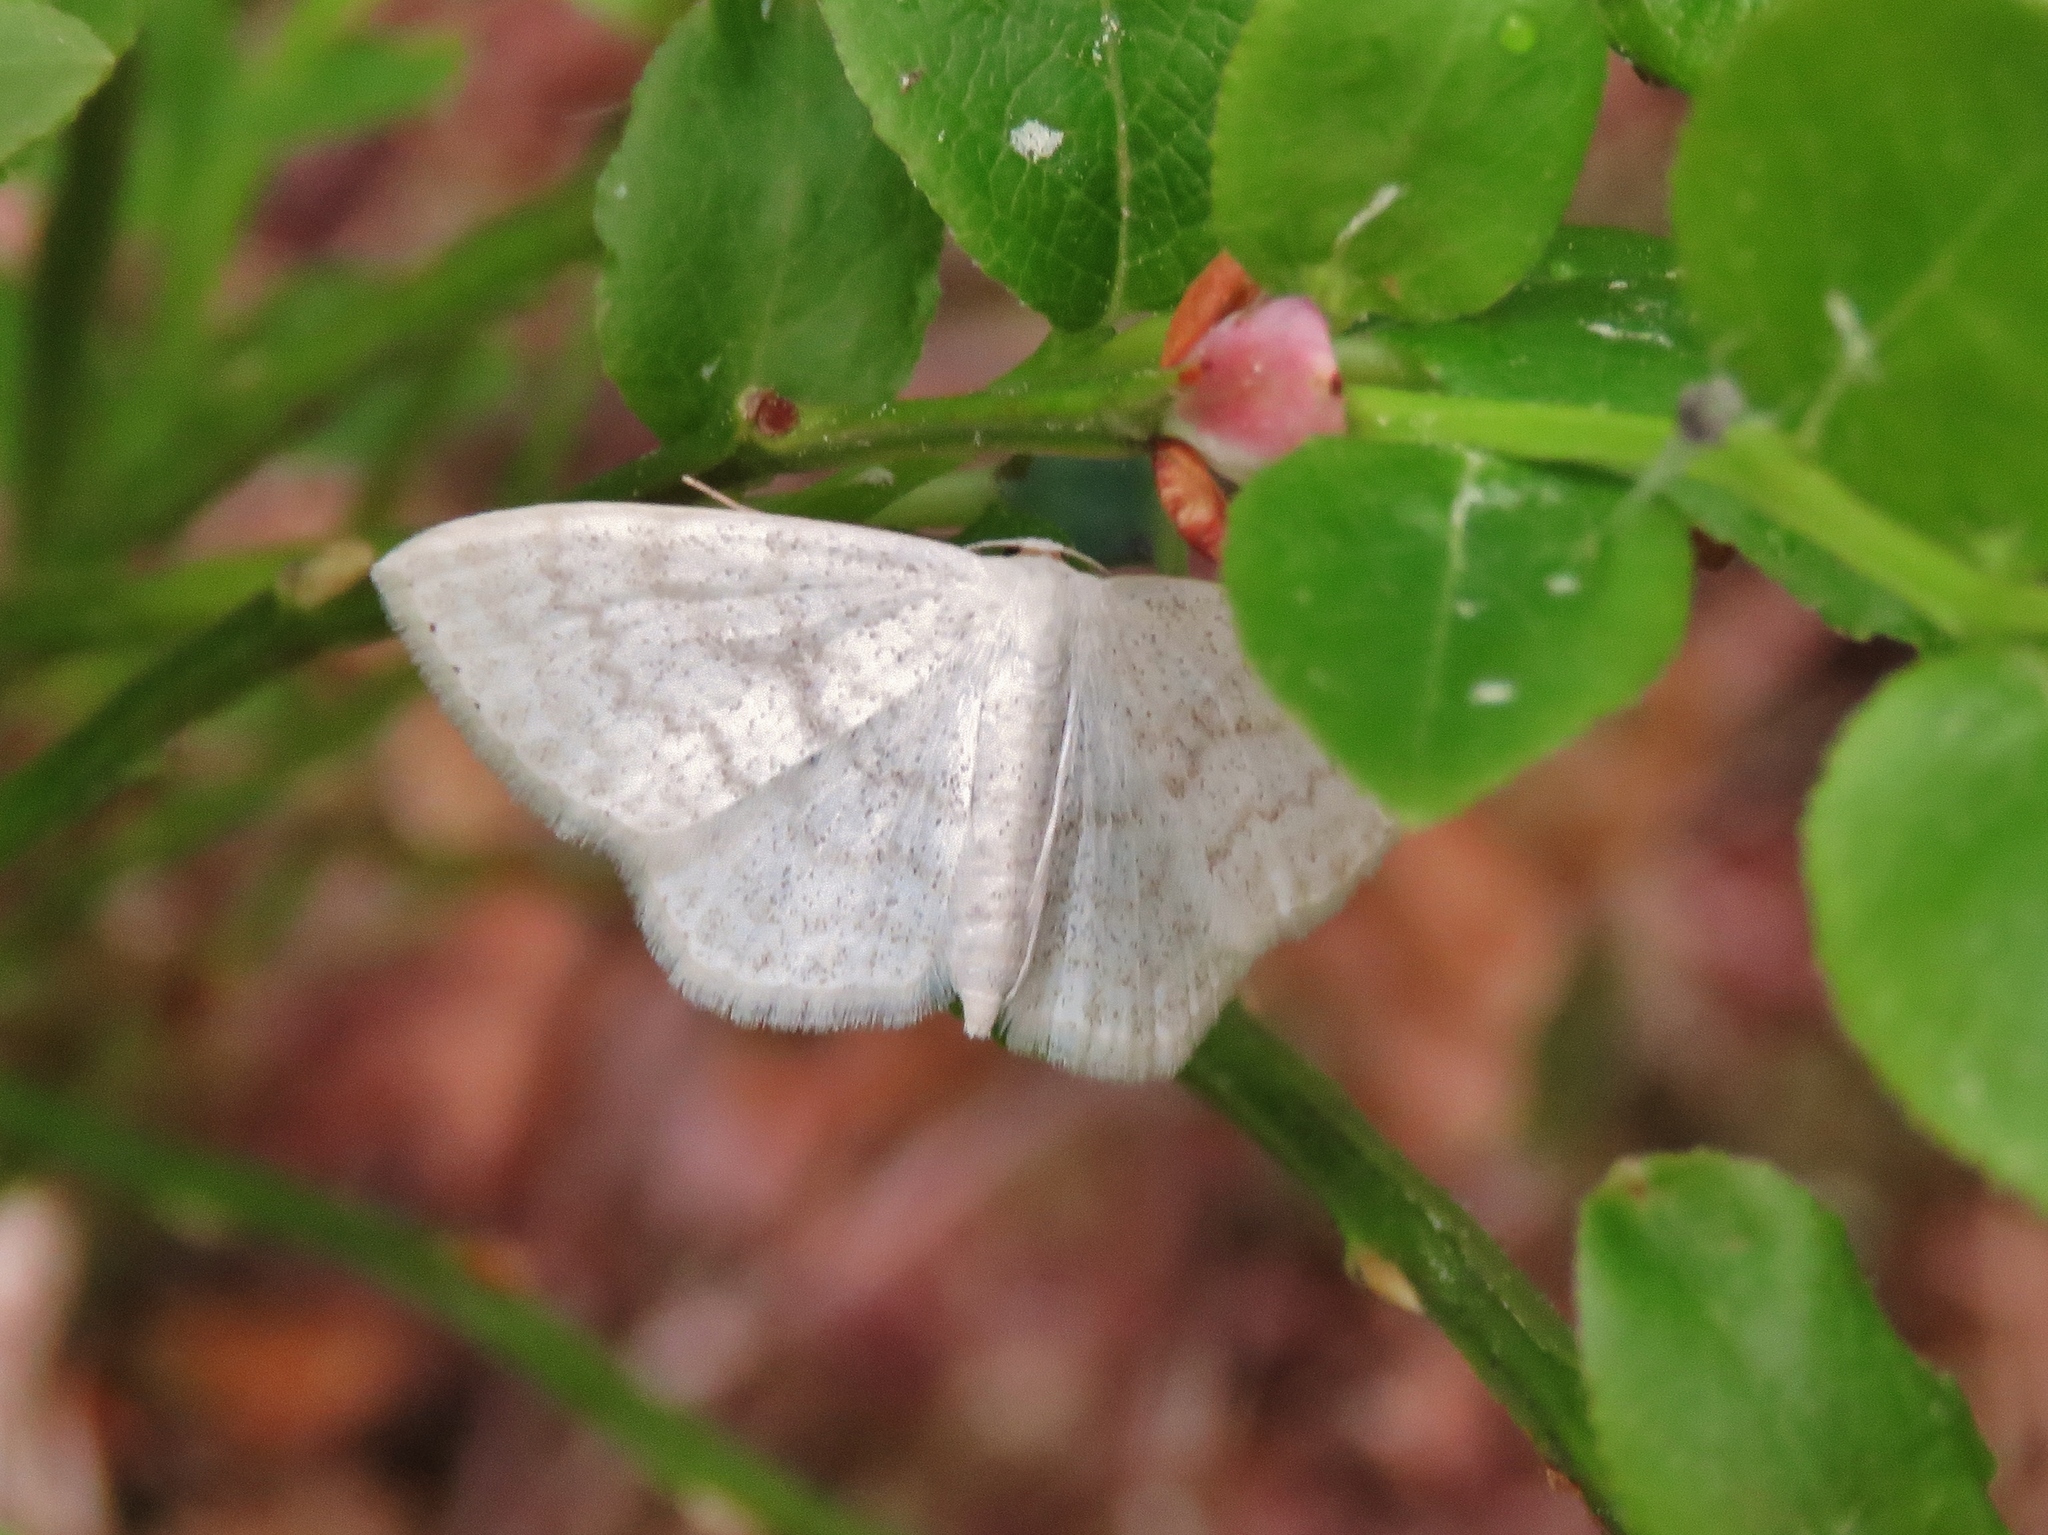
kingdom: Animalia
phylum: Arthropoda
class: Insecta
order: Lepidoptera
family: Geometridae
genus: Scopula
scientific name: Scopula floslactata
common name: Cream wave
